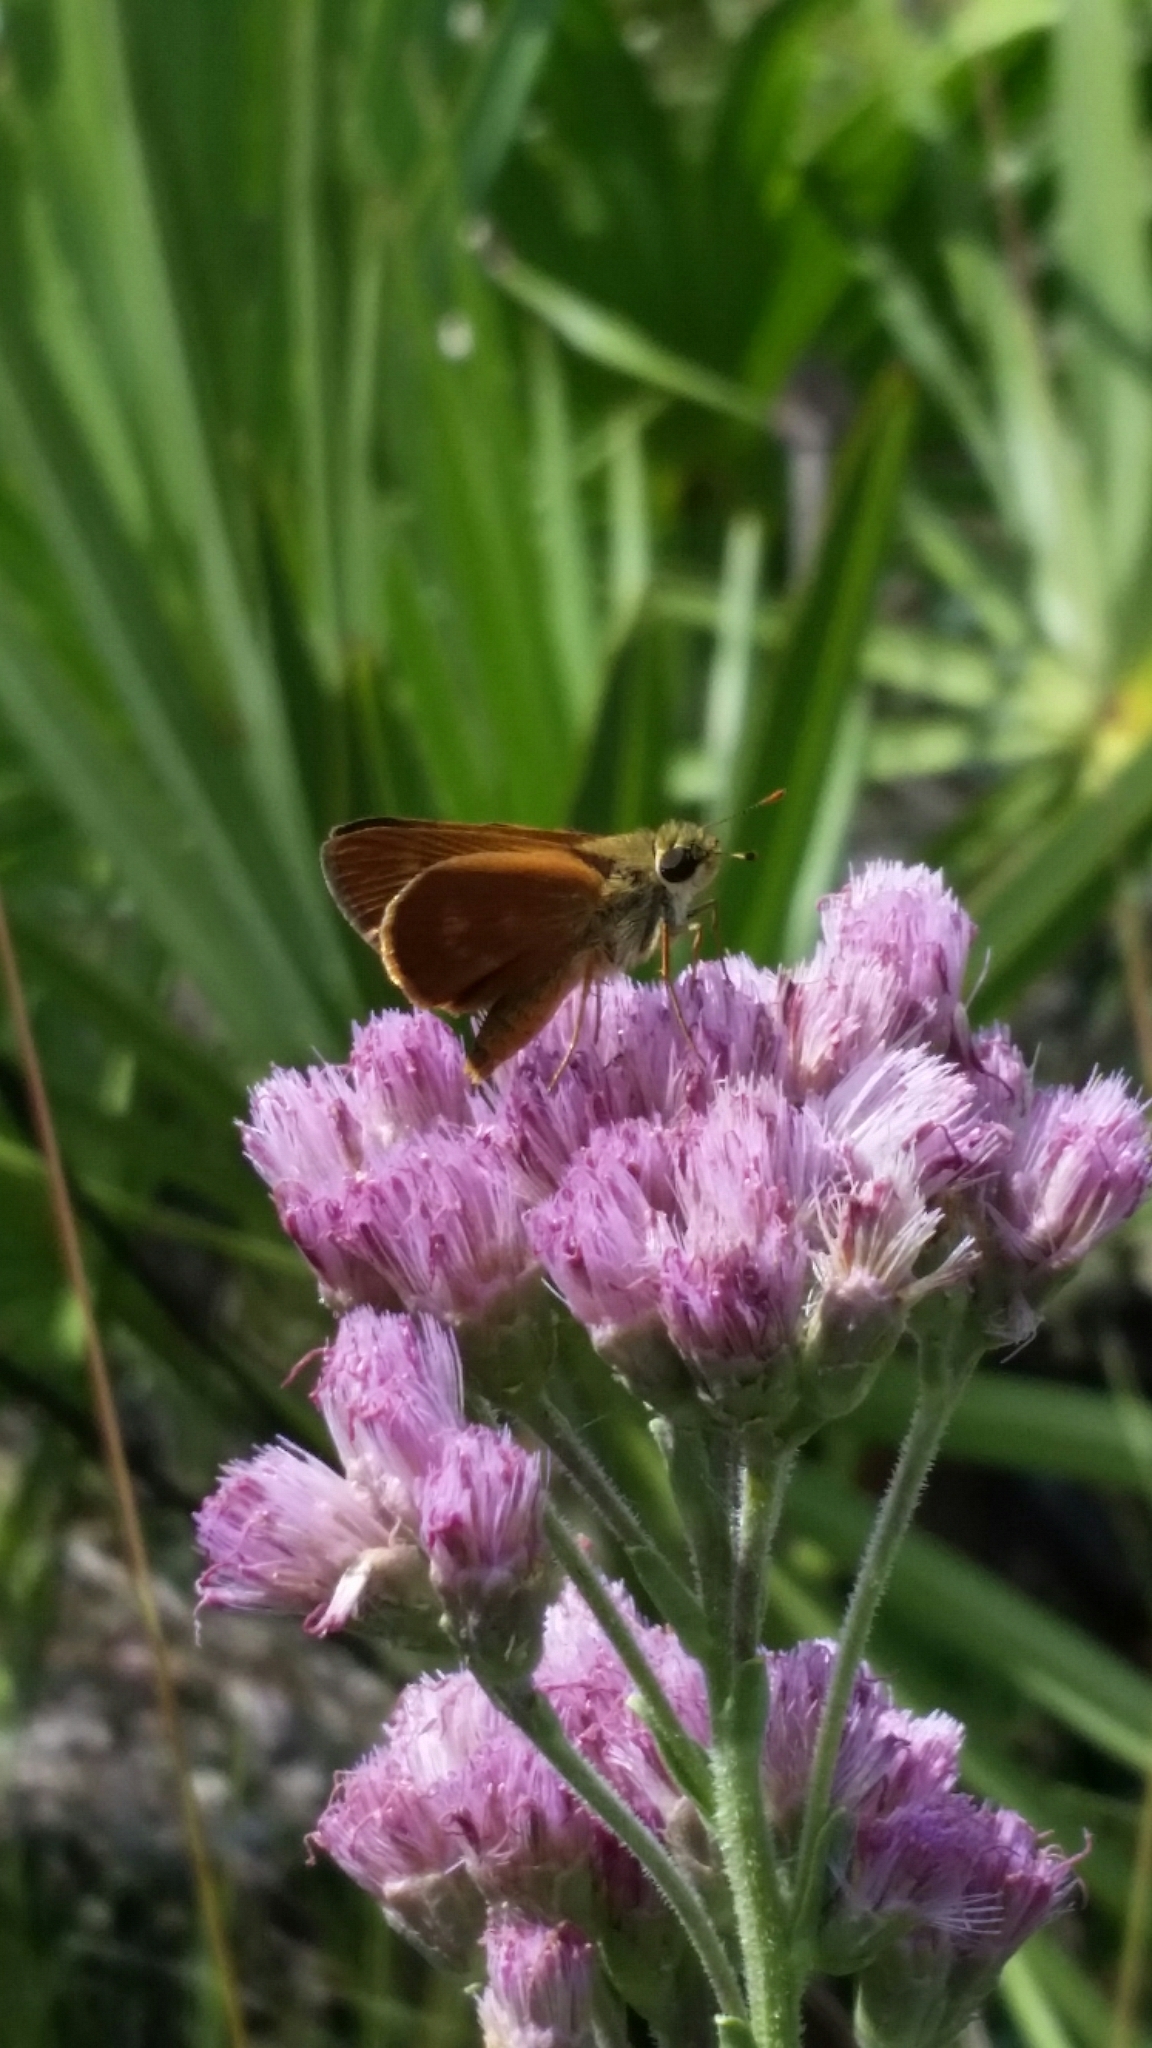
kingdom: Animalia
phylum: Arthropoda
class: Insecta
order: Lepidoptera
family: Hesperiidae
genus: Polites
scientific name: Polites otho
